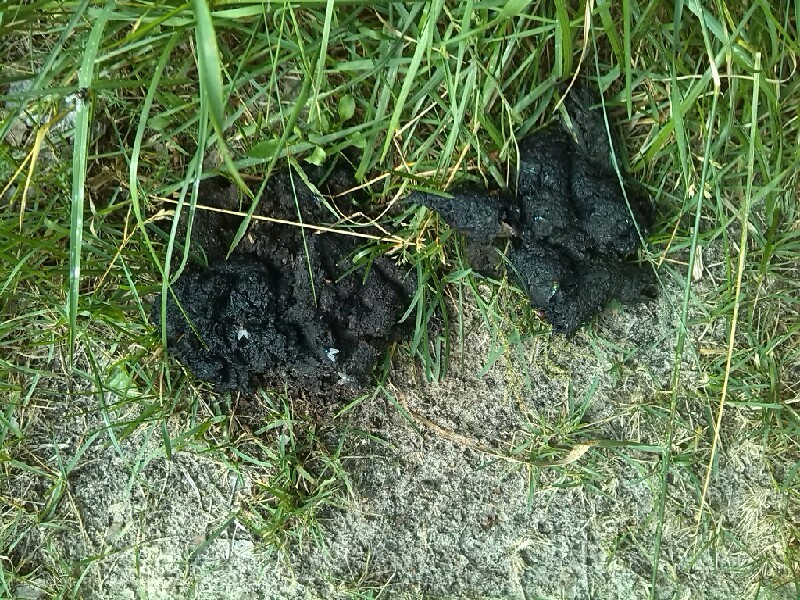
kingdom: Animalia
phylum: Chordata
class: Mammalia
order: Carnivora
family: Ursidae
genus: Ursus
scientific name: Ursus arctos
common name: Brown bear
